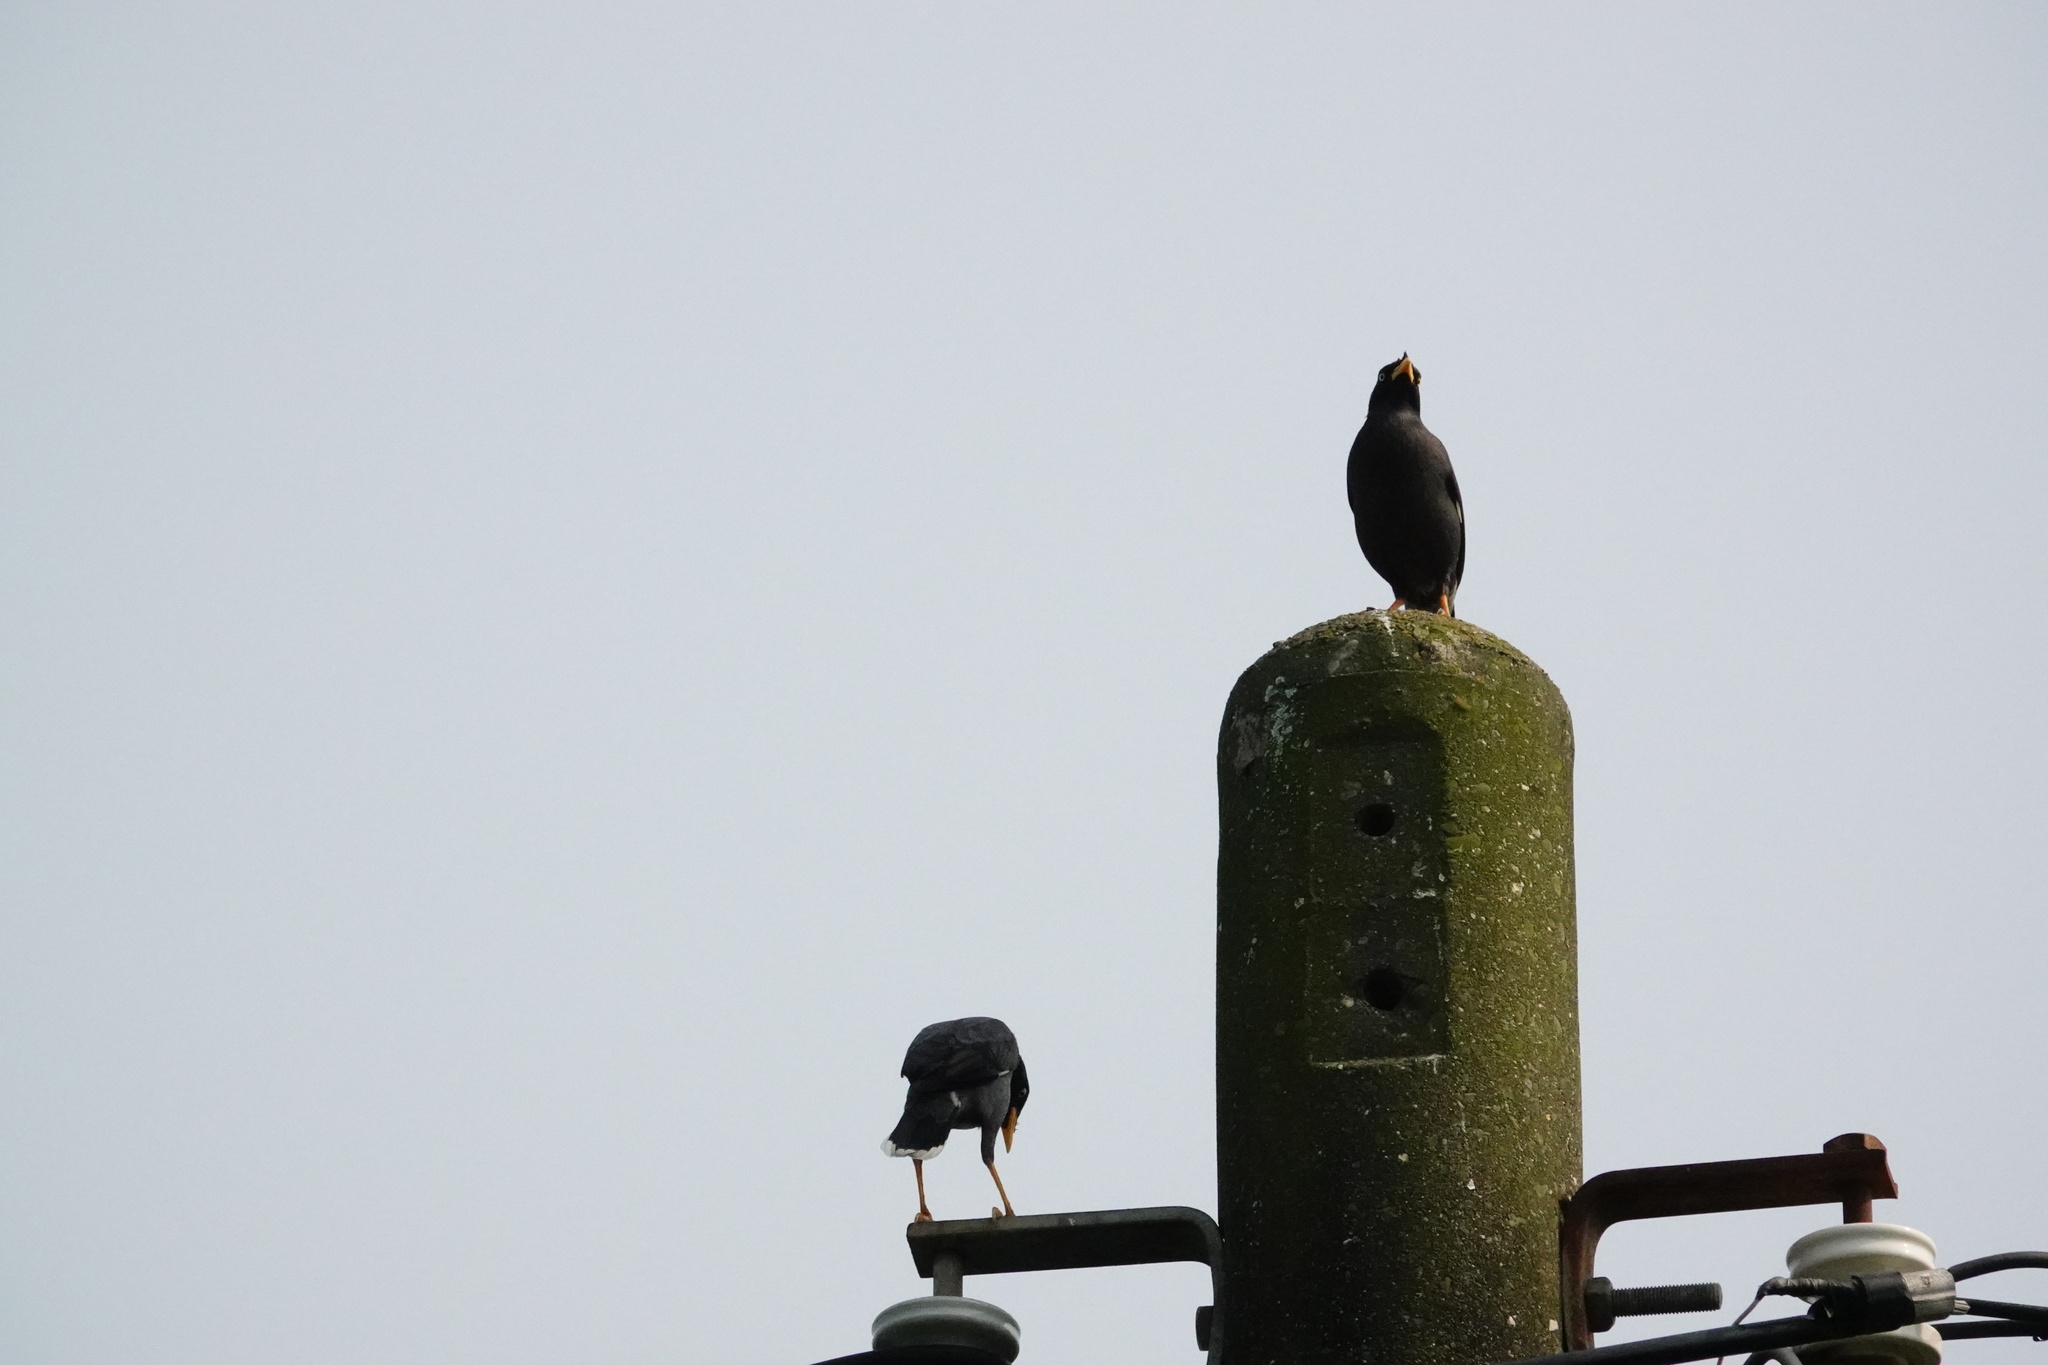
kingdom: Animalia
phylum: Chordata
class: Aves
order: Passeriformes
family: Sturnidae
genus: Acridotheres
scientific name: Acridotheres javanicus
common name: Javan myna
